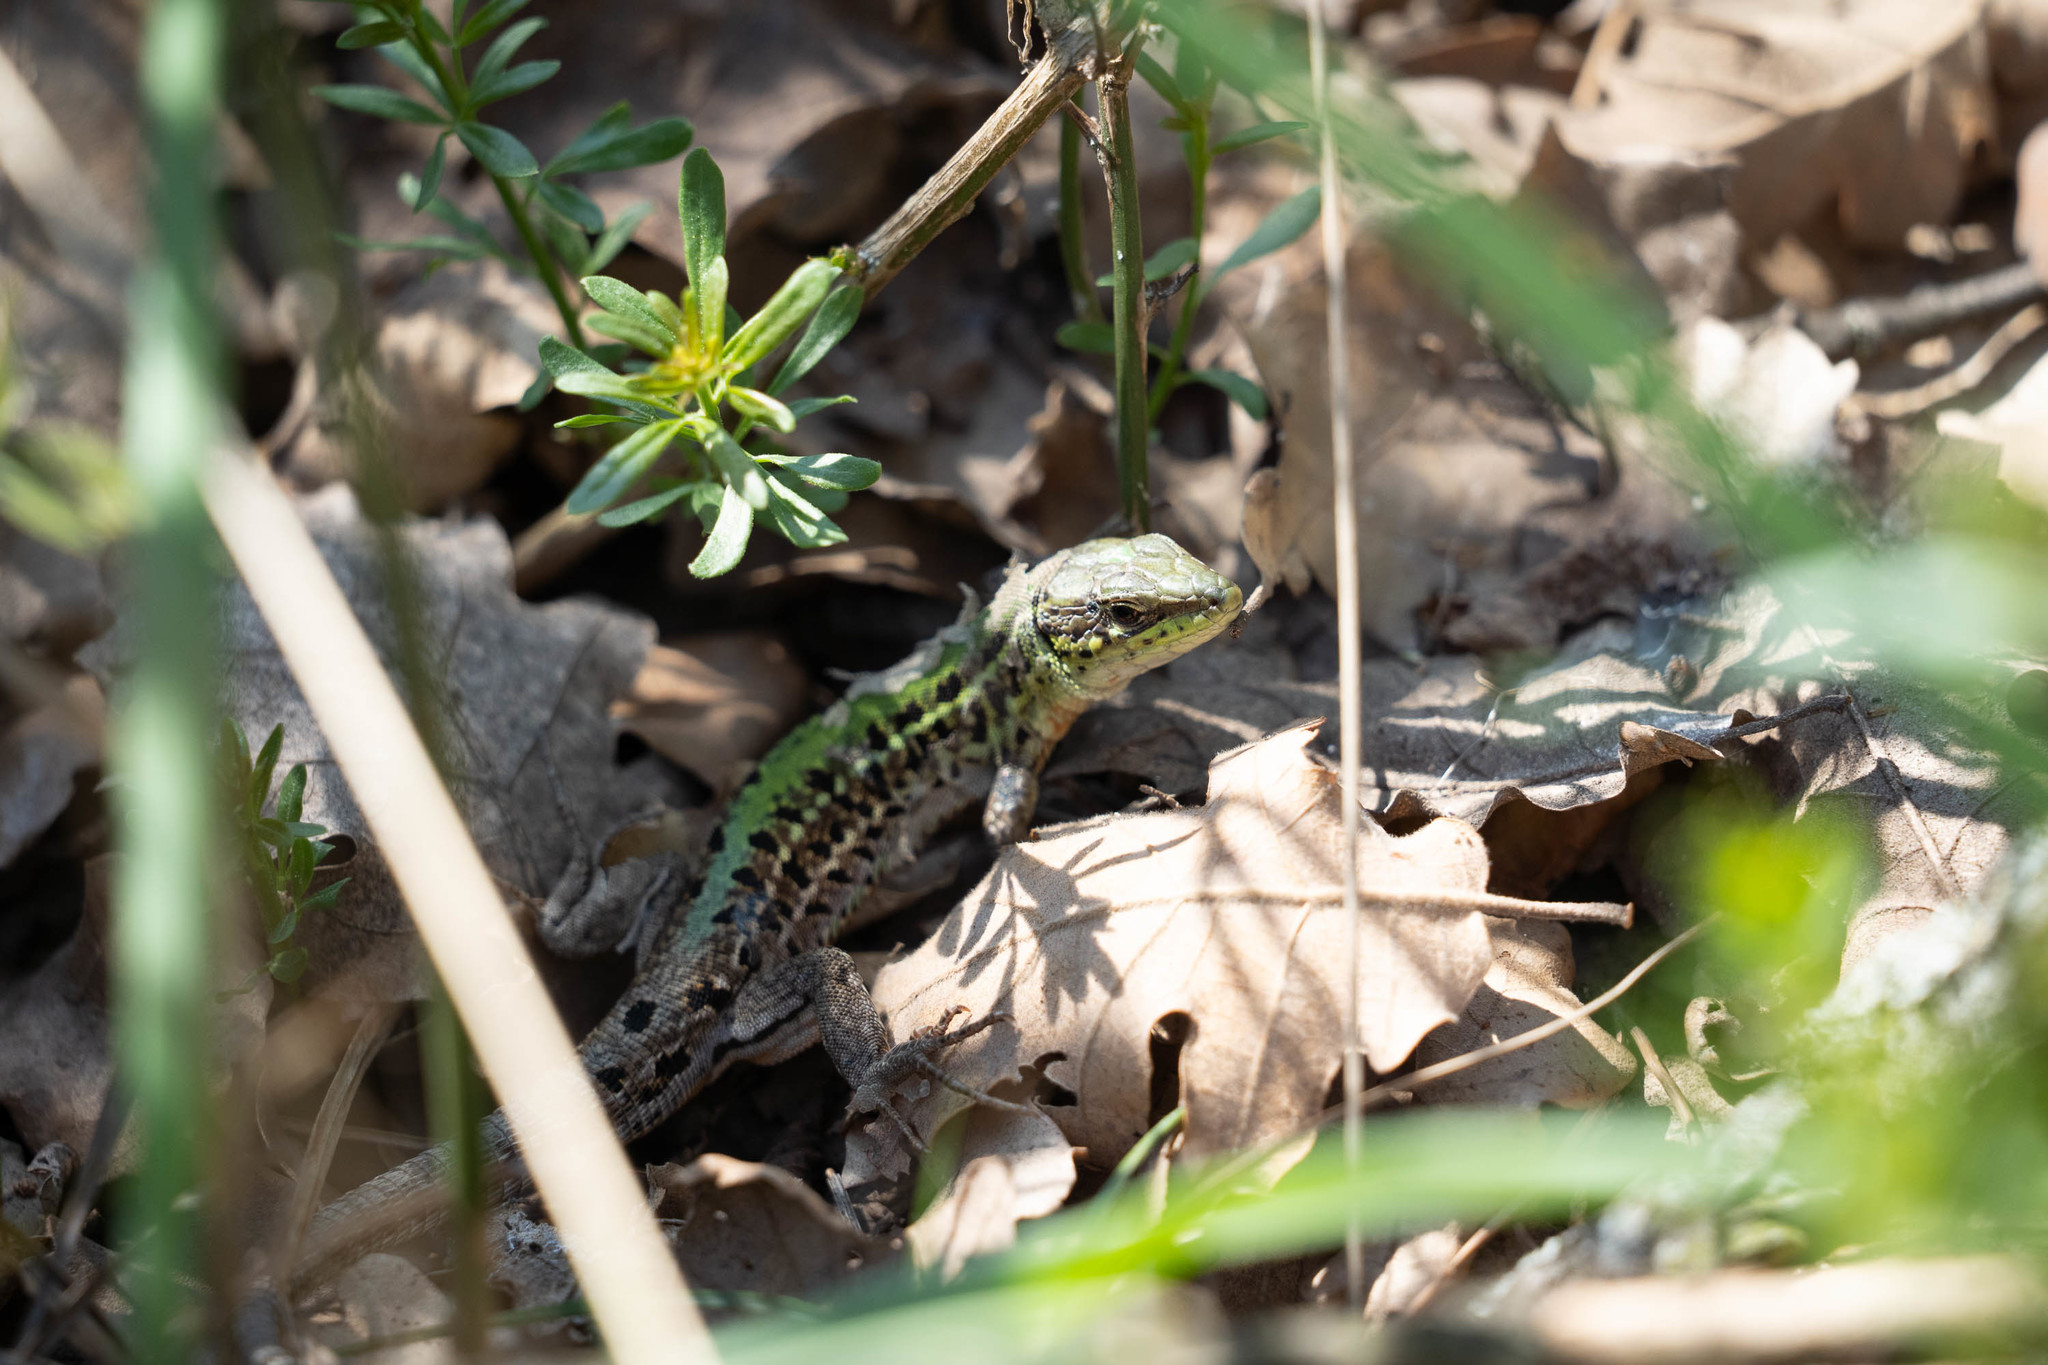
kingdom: Animalia
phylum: Chordata
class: Squamata
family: Lacertidae
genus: Podarcis
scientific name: Podarcis tauricus
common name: Balkan wall lizard
